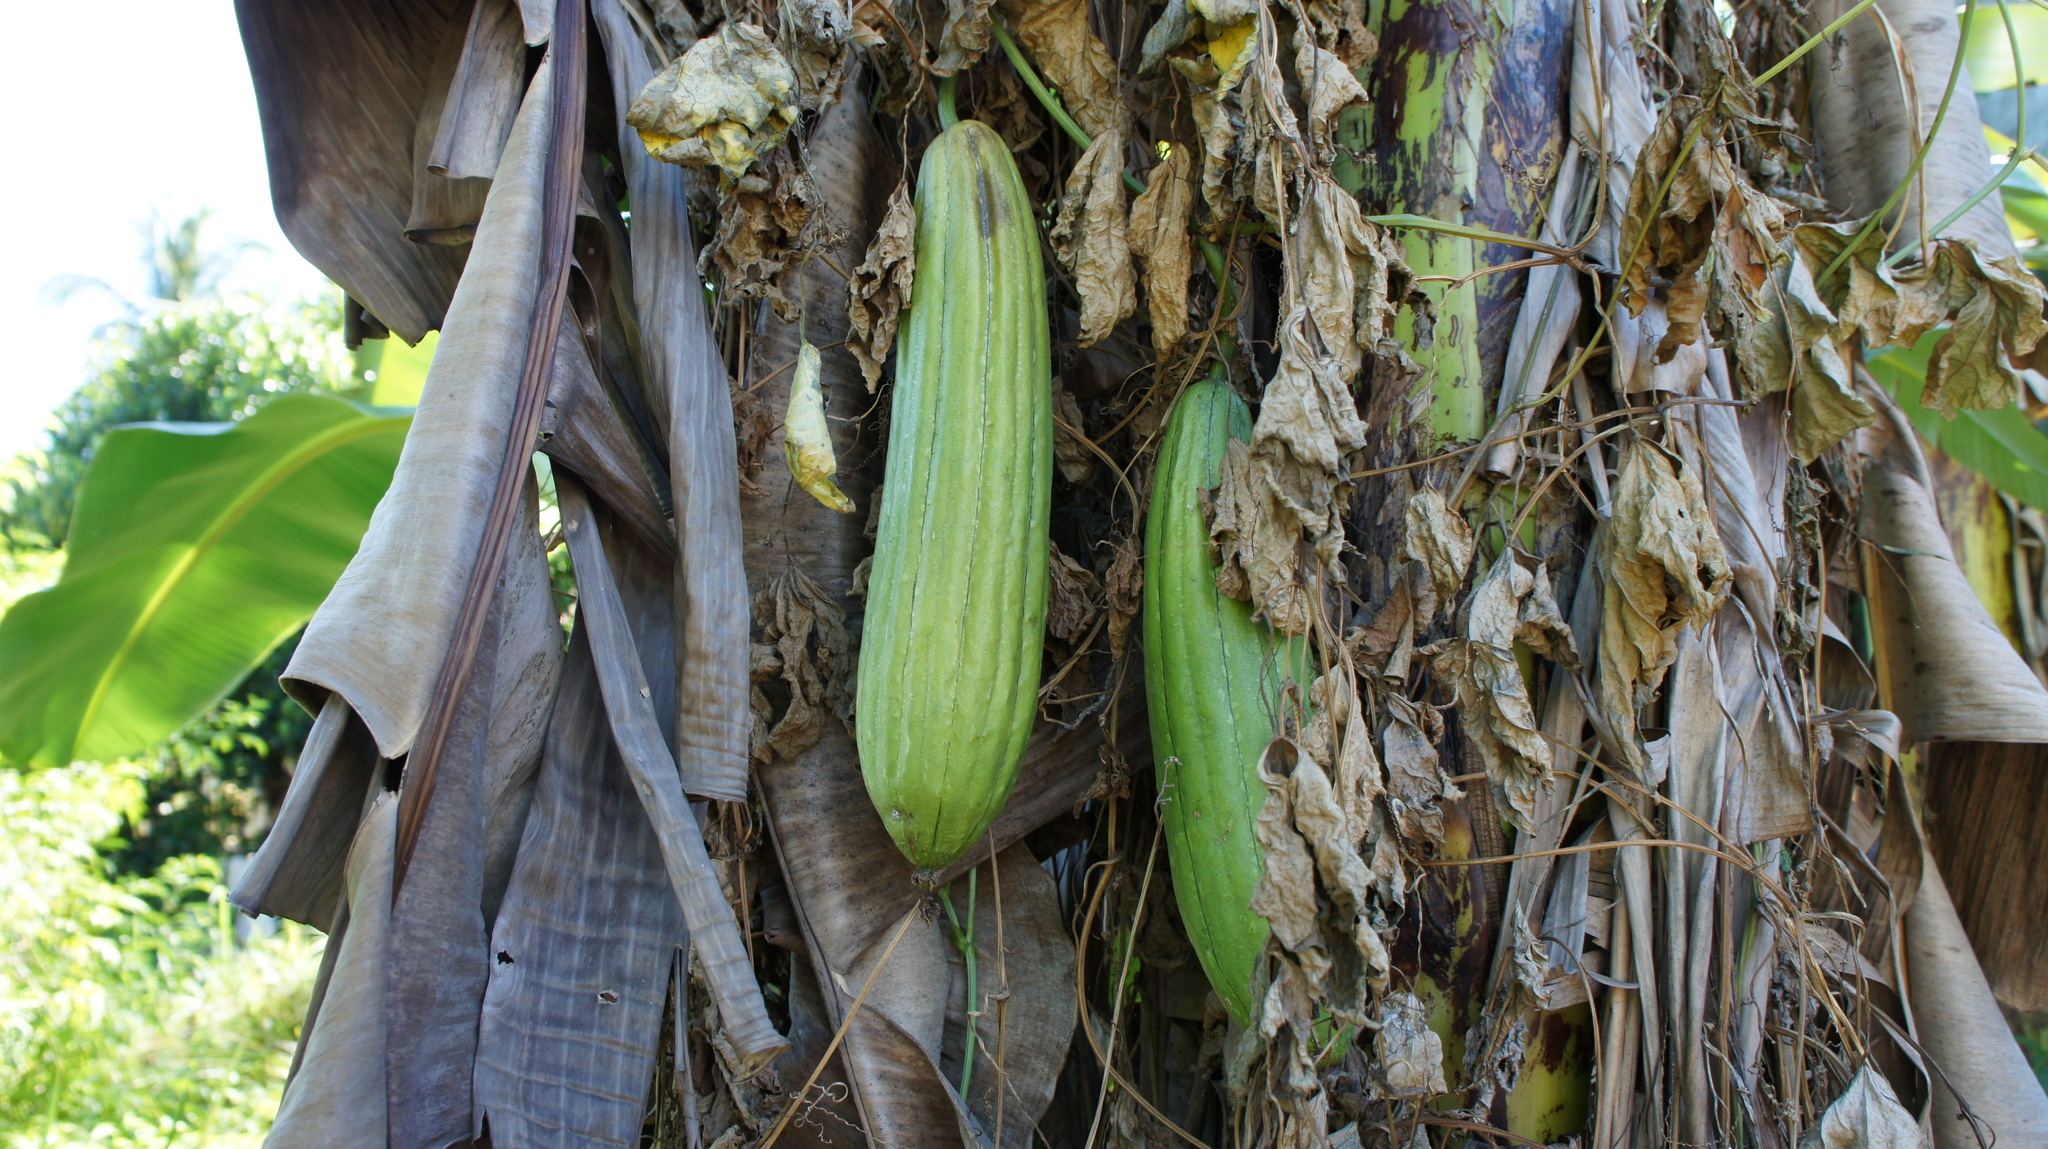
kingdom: Plantae
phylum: Tracheophyta
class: Magnoliopsida
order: Cucurbitales
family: Cucurbitaceae
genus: Luffa
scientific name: Luffa aegyptiaca
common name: Sponge gourd
